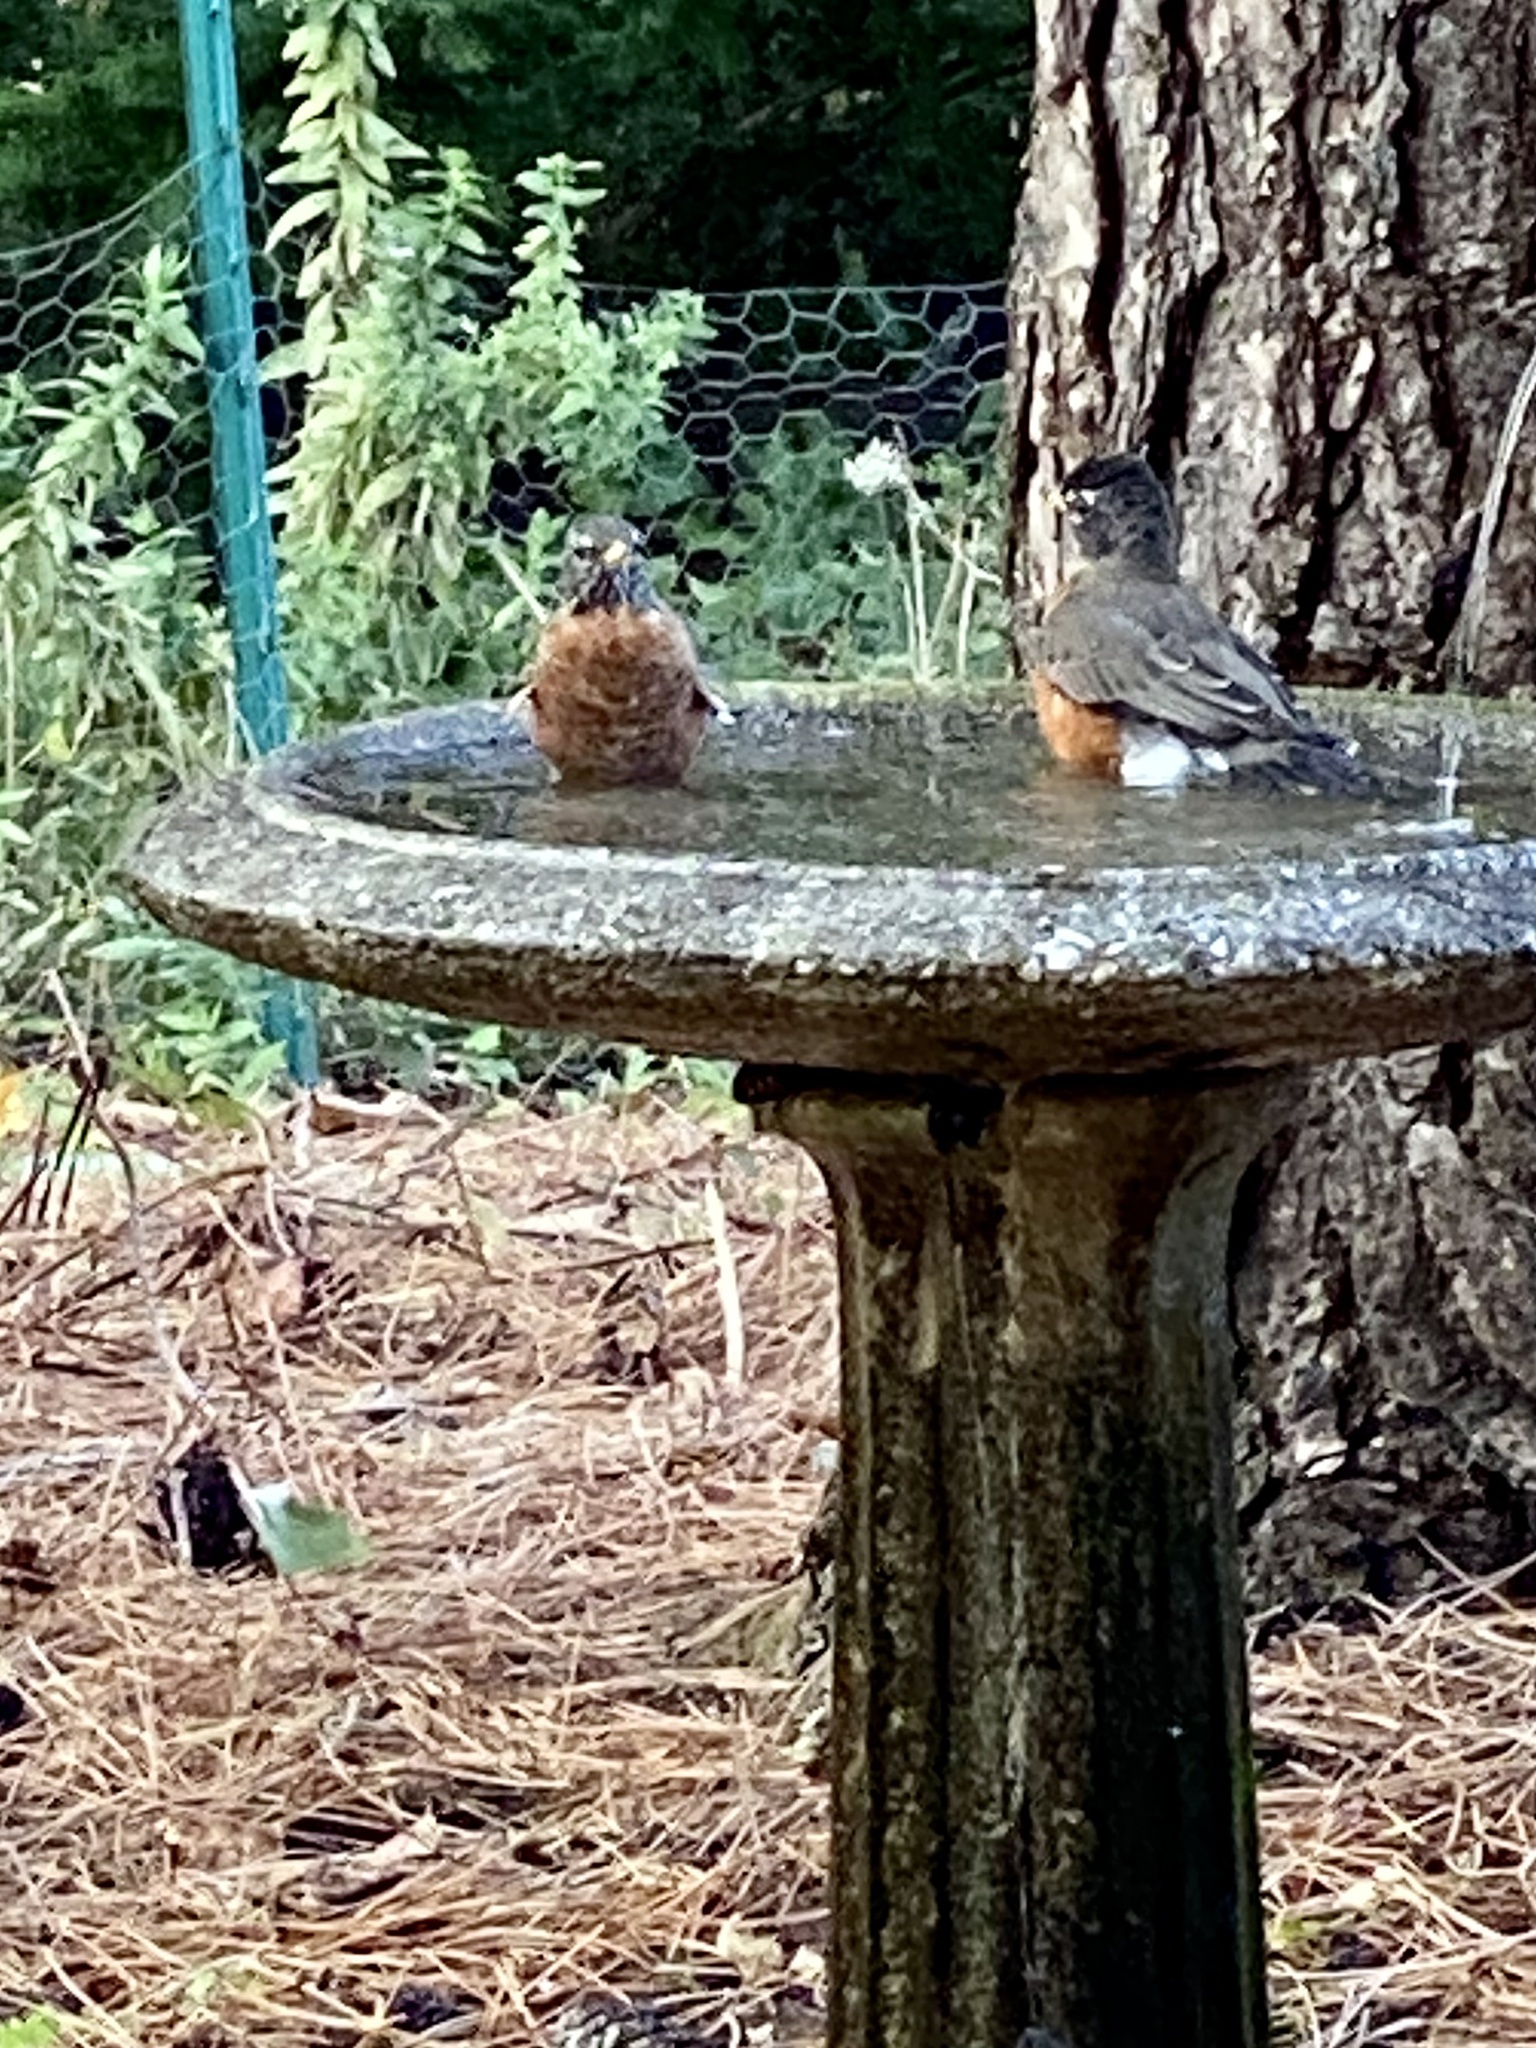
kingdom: Animalia
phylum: Chordata
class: Aves
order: Passeriformes
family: Turdidae
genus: Turdus
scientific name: Turdus migratorius
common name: American robin
